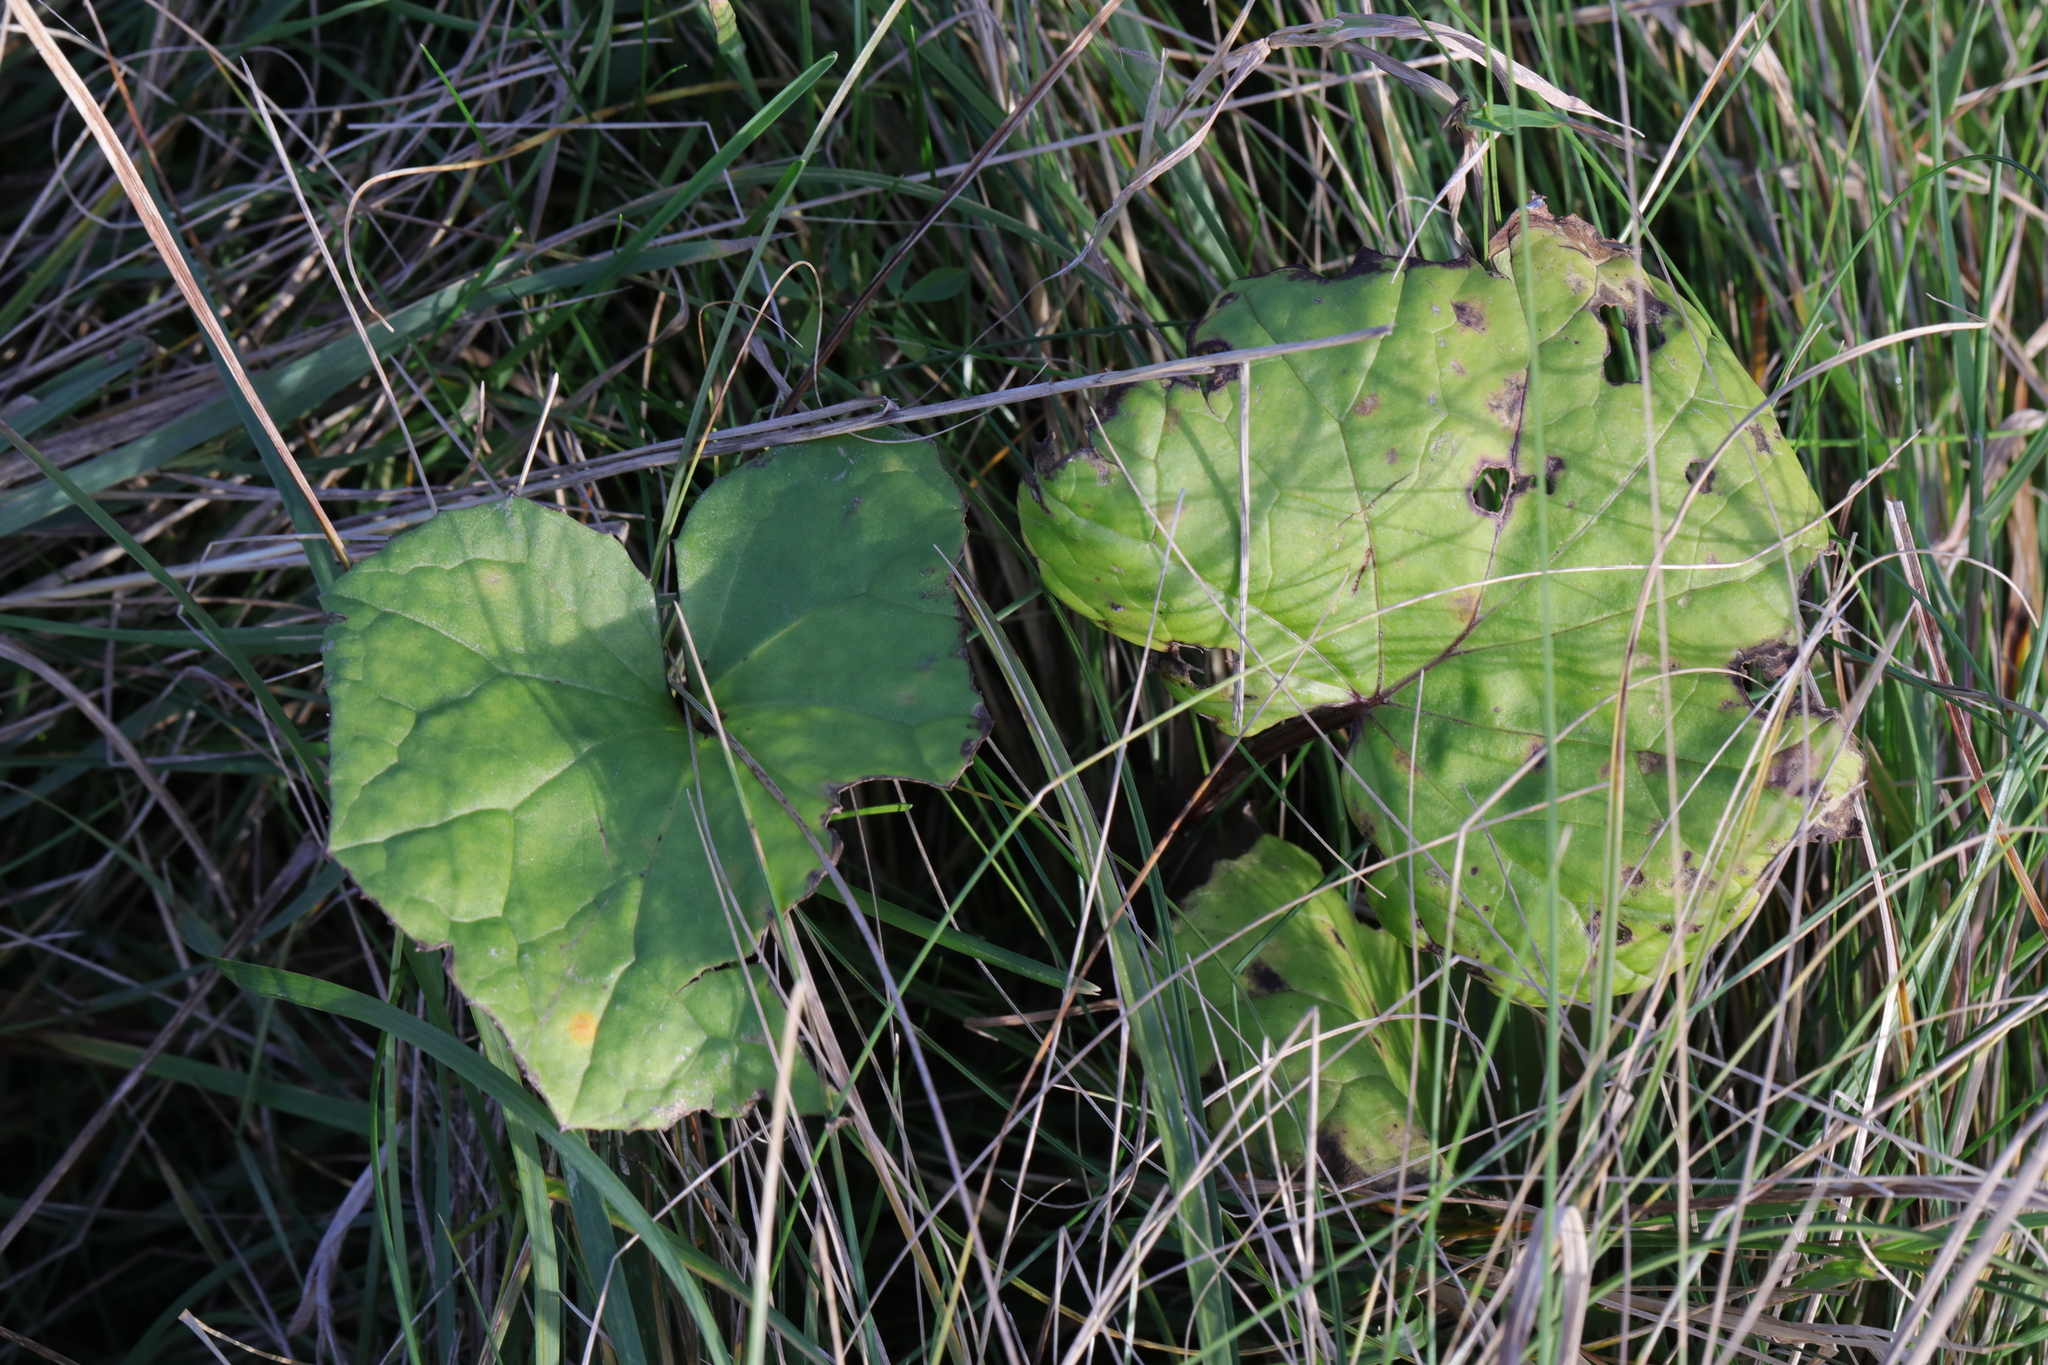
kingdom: Plantae
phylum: Tracheophyta
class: Magnoliopsida
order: Asterales
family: Asteraceae
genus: Tussilago
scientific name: Tussilago farfara
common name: Coltsfoot
